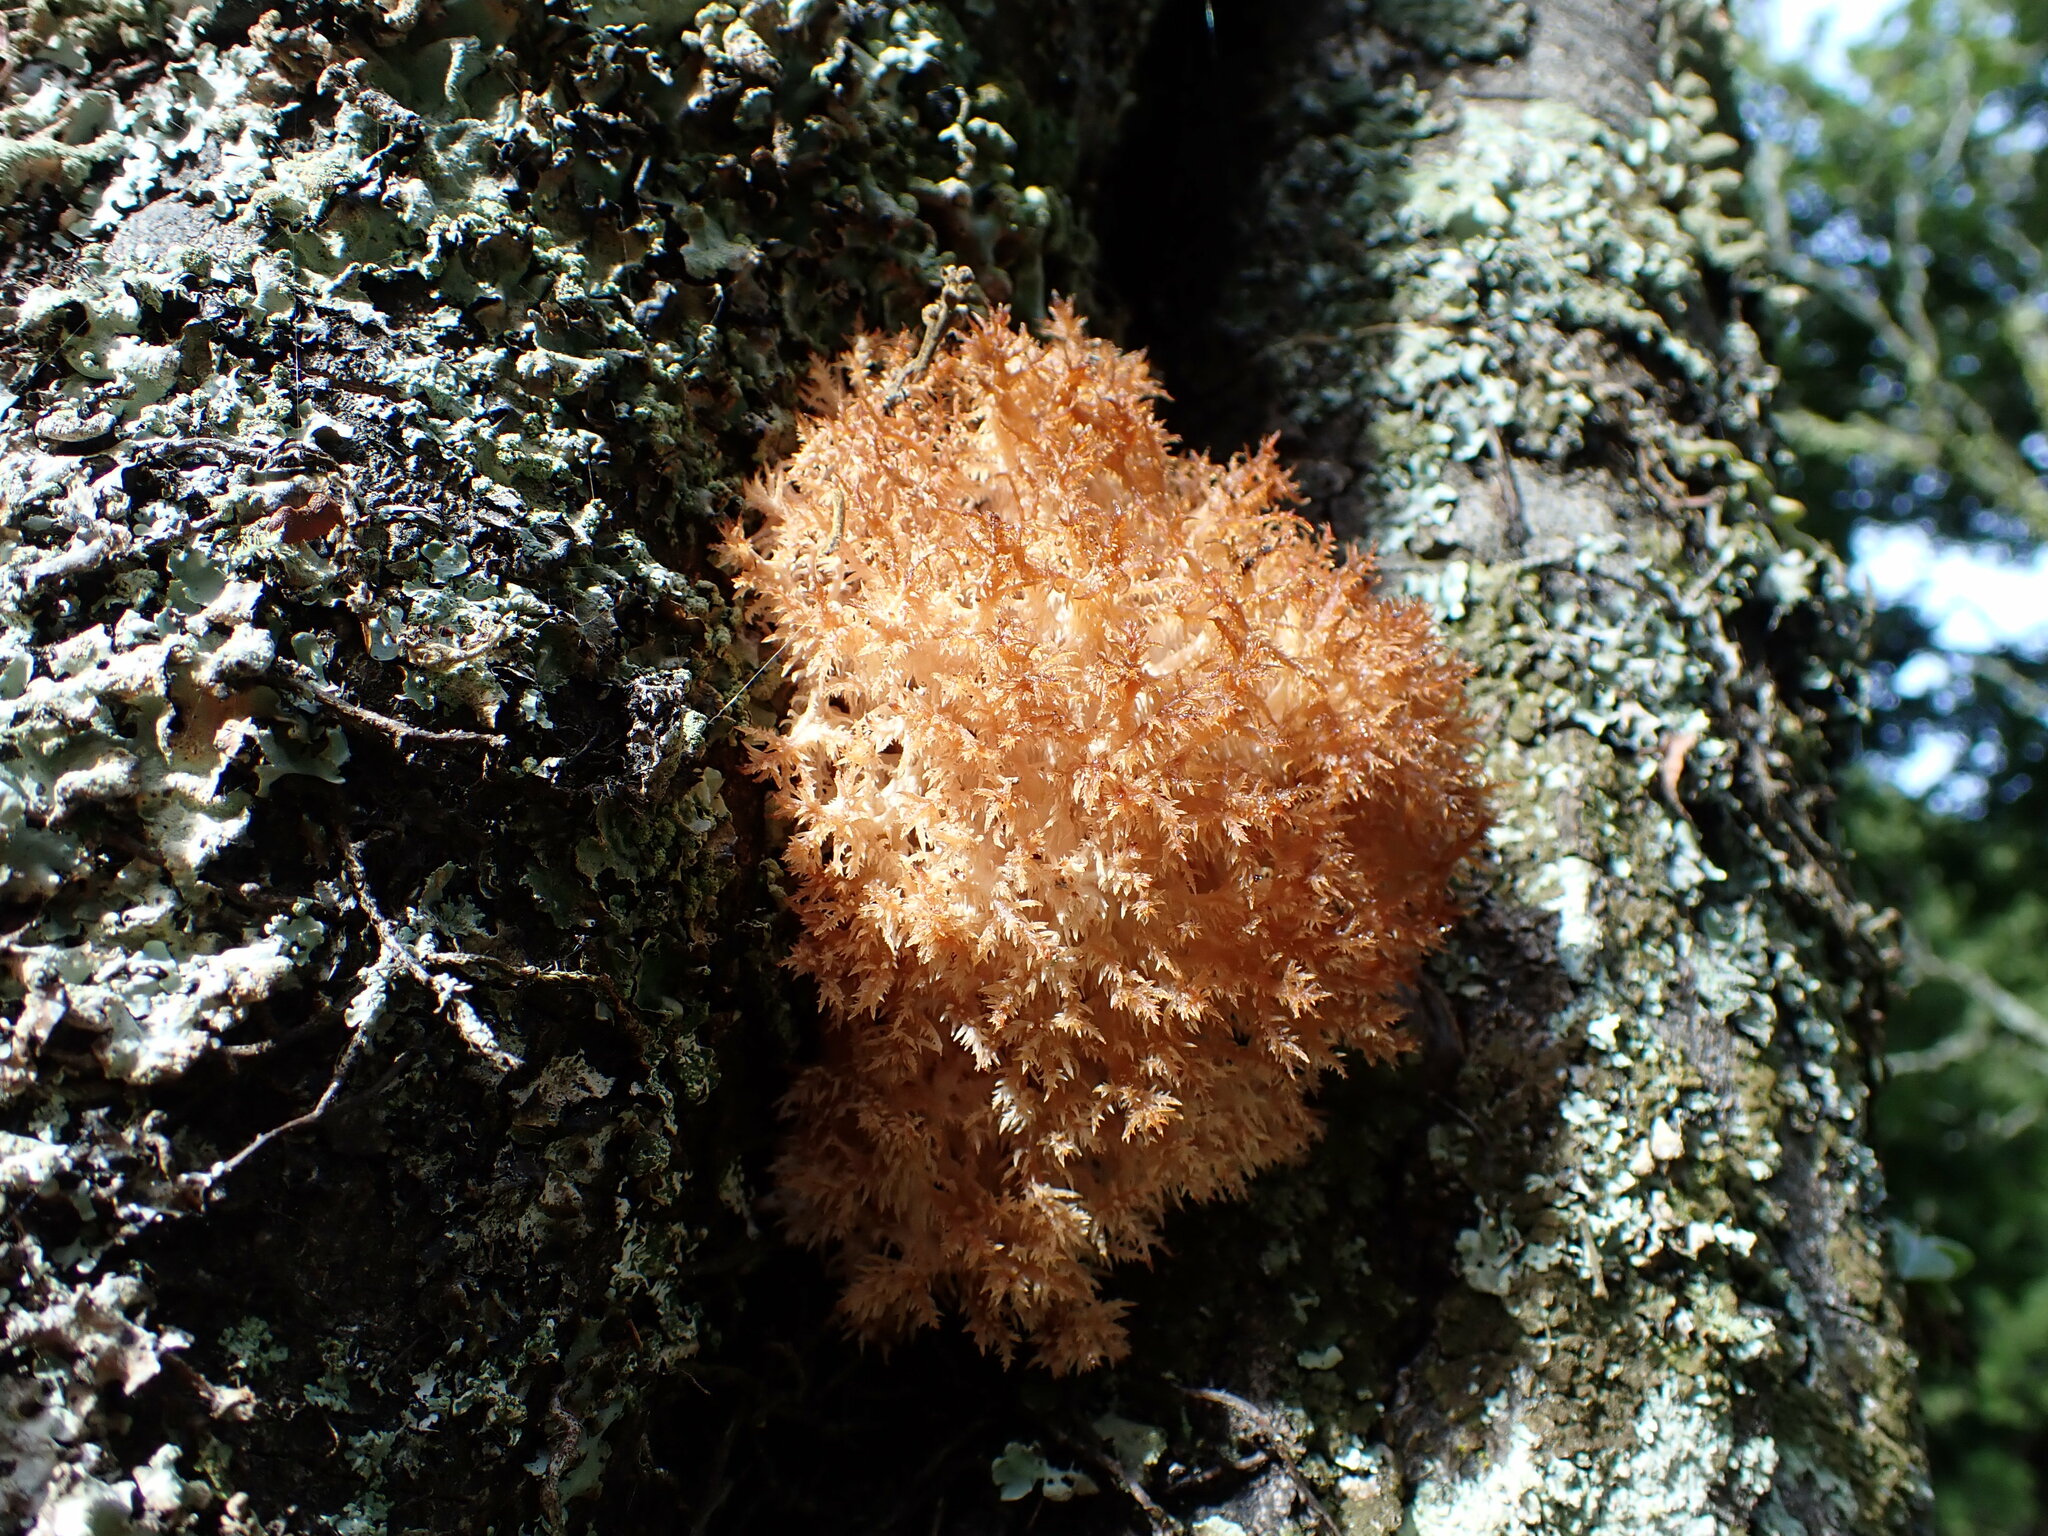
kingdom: Fungi
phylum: Basidiomycota
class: Agaricomycetes
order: Russulales
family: Hericiaceae
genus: Hericium
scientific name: Hericium novae-zealandiae
